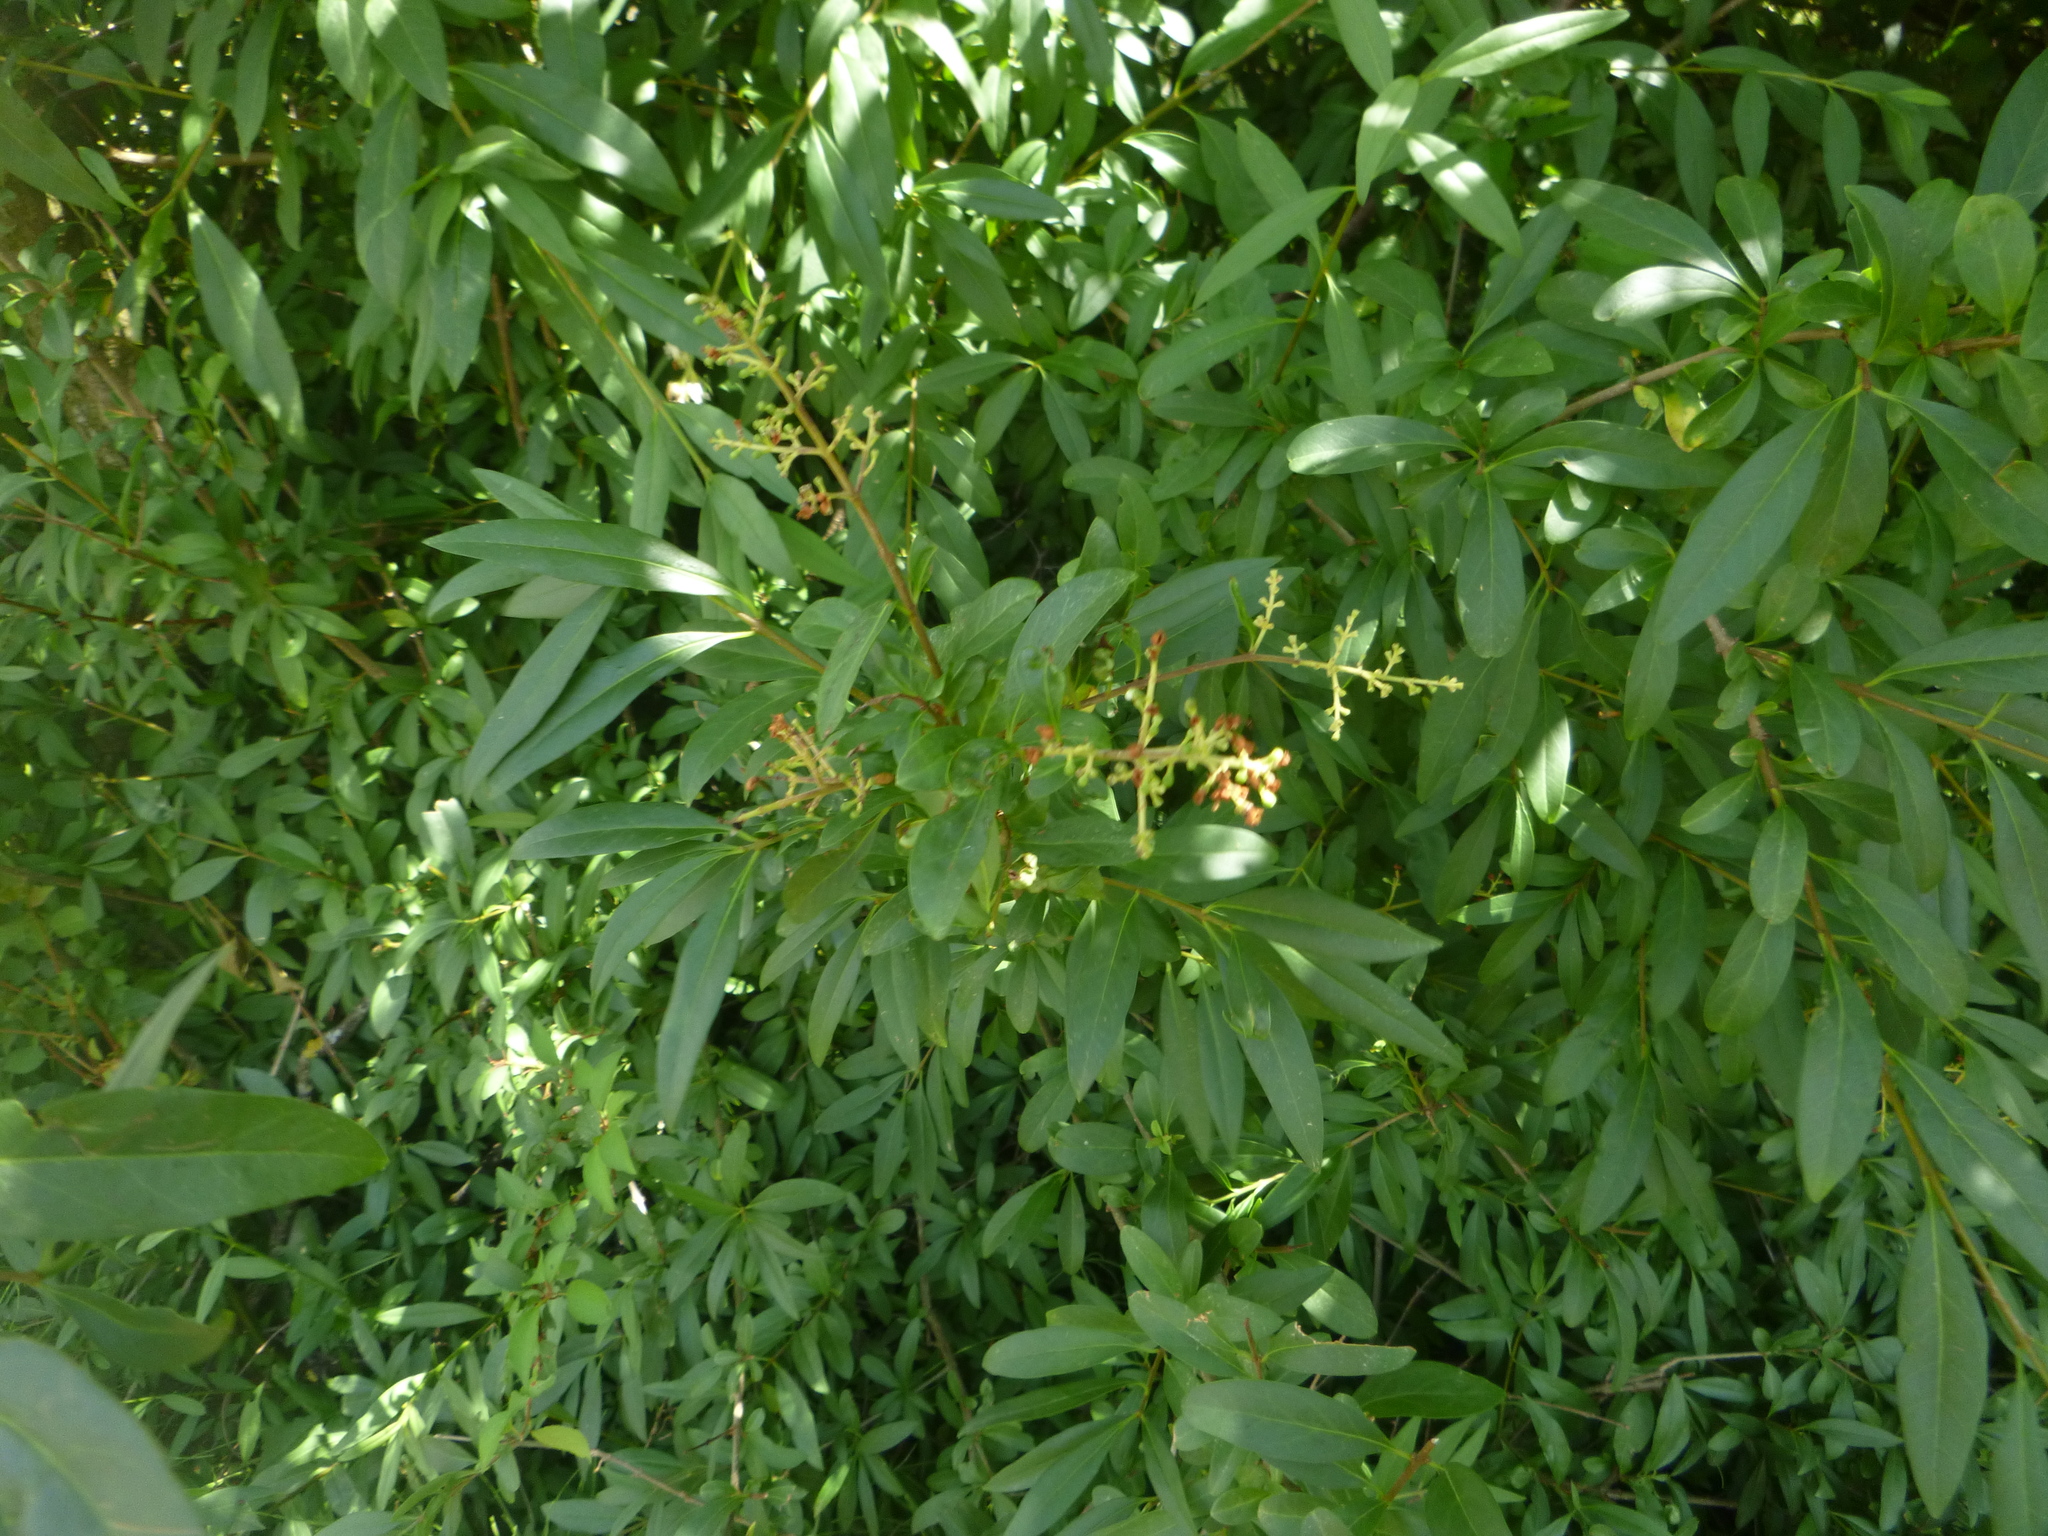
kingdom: Plantae
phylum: Tracheophyta
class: Magnoliopsida
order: Lamiales
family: Oleaceae
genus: Ligustrum
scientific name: Ligustrum vulgare
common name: Wild privet
